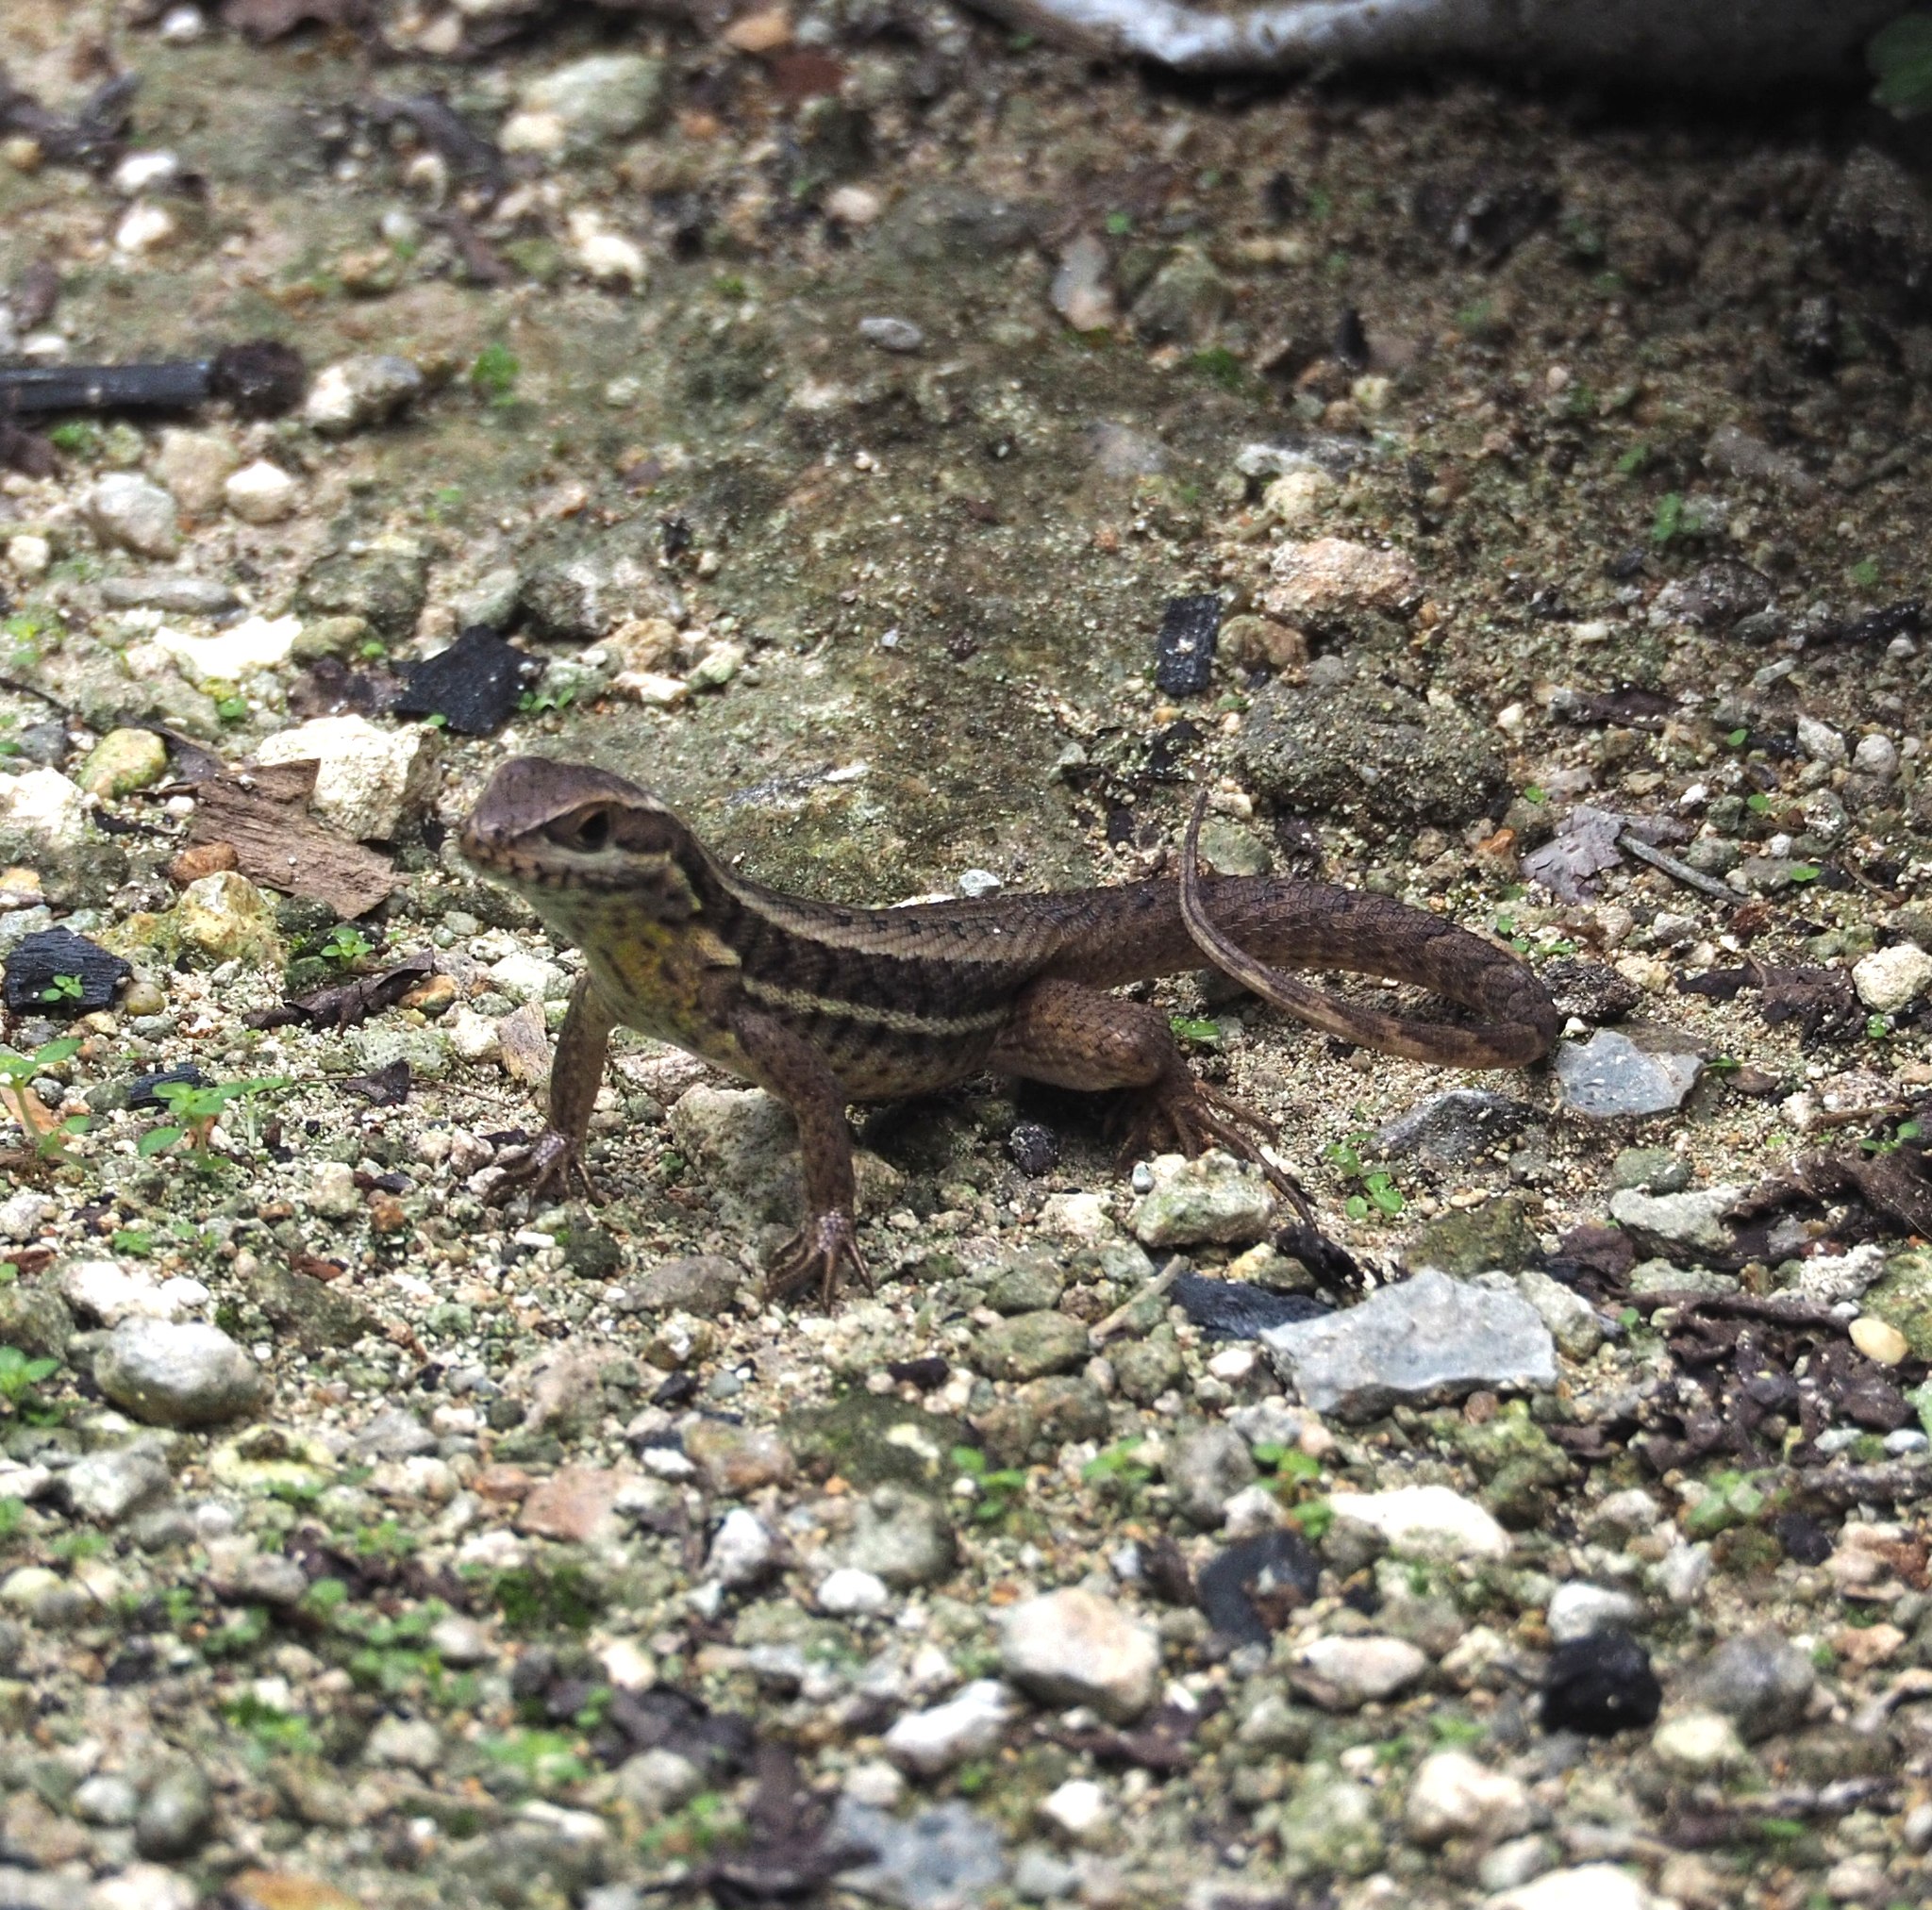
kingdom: Animalia
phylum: Chordata
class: Squamata
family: Leiocephalidae
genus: Leiocephalus
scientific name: Leiocephalus stictigaster
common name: Cabo corrientes curlytail lizard
